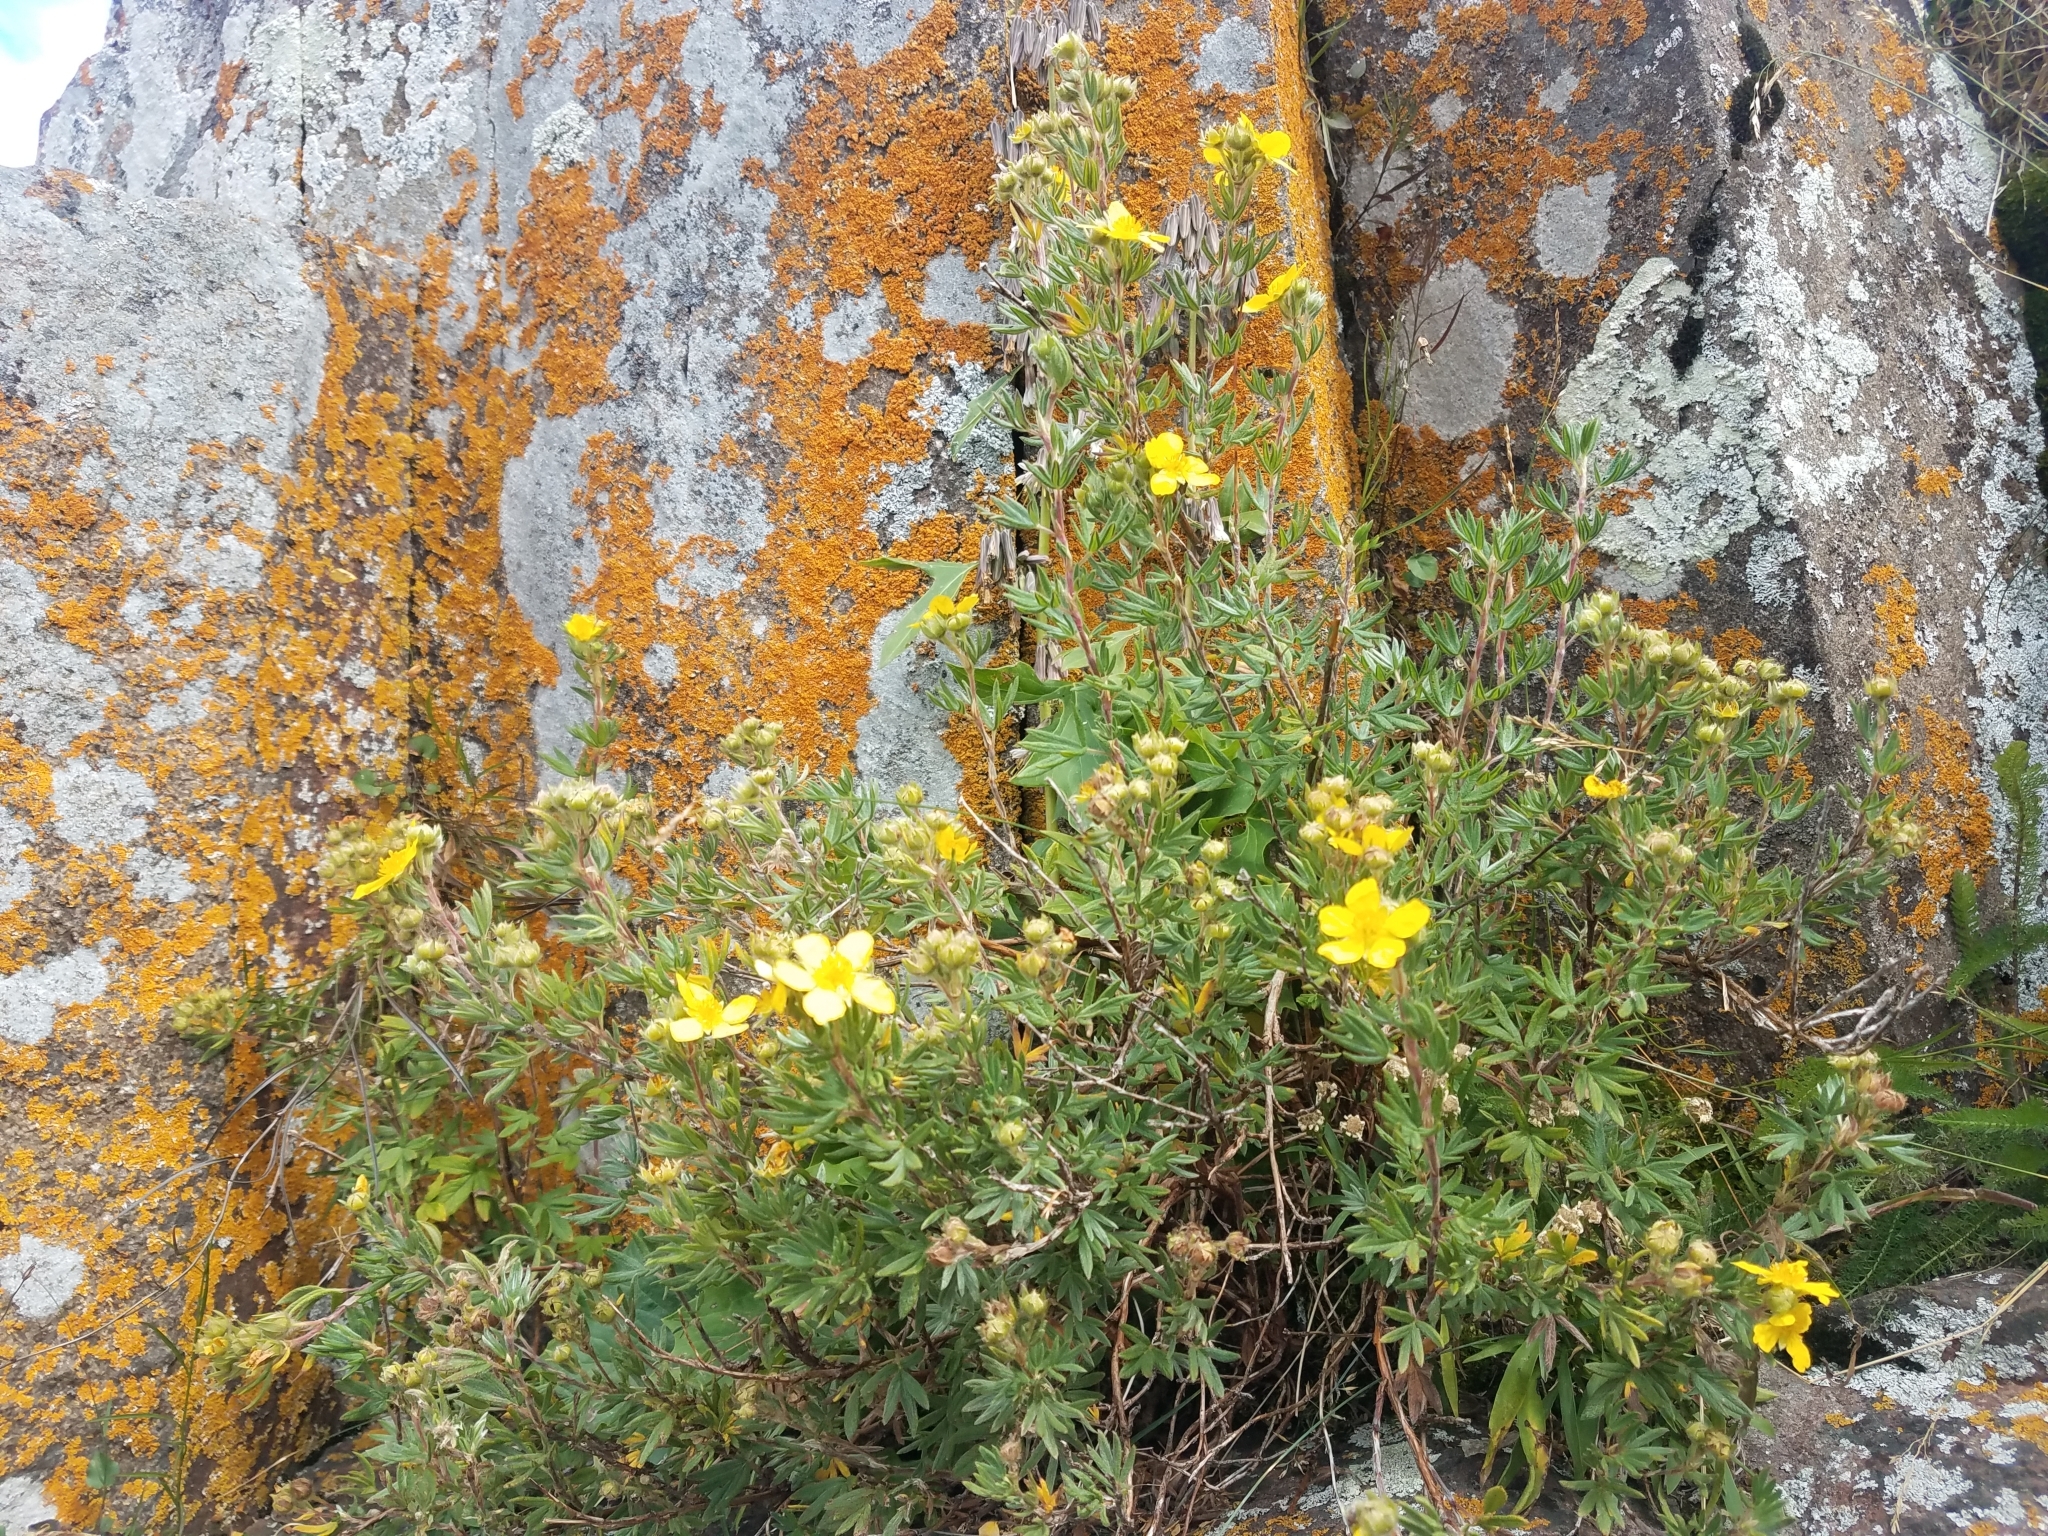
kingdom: Plantae
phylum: Tracheophyta
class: Magnoliopsida
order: Rosales
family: Rosaceae
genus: Dasiphora
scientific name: Dasiphora fruticosa
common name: Shrubby cinquefoil
